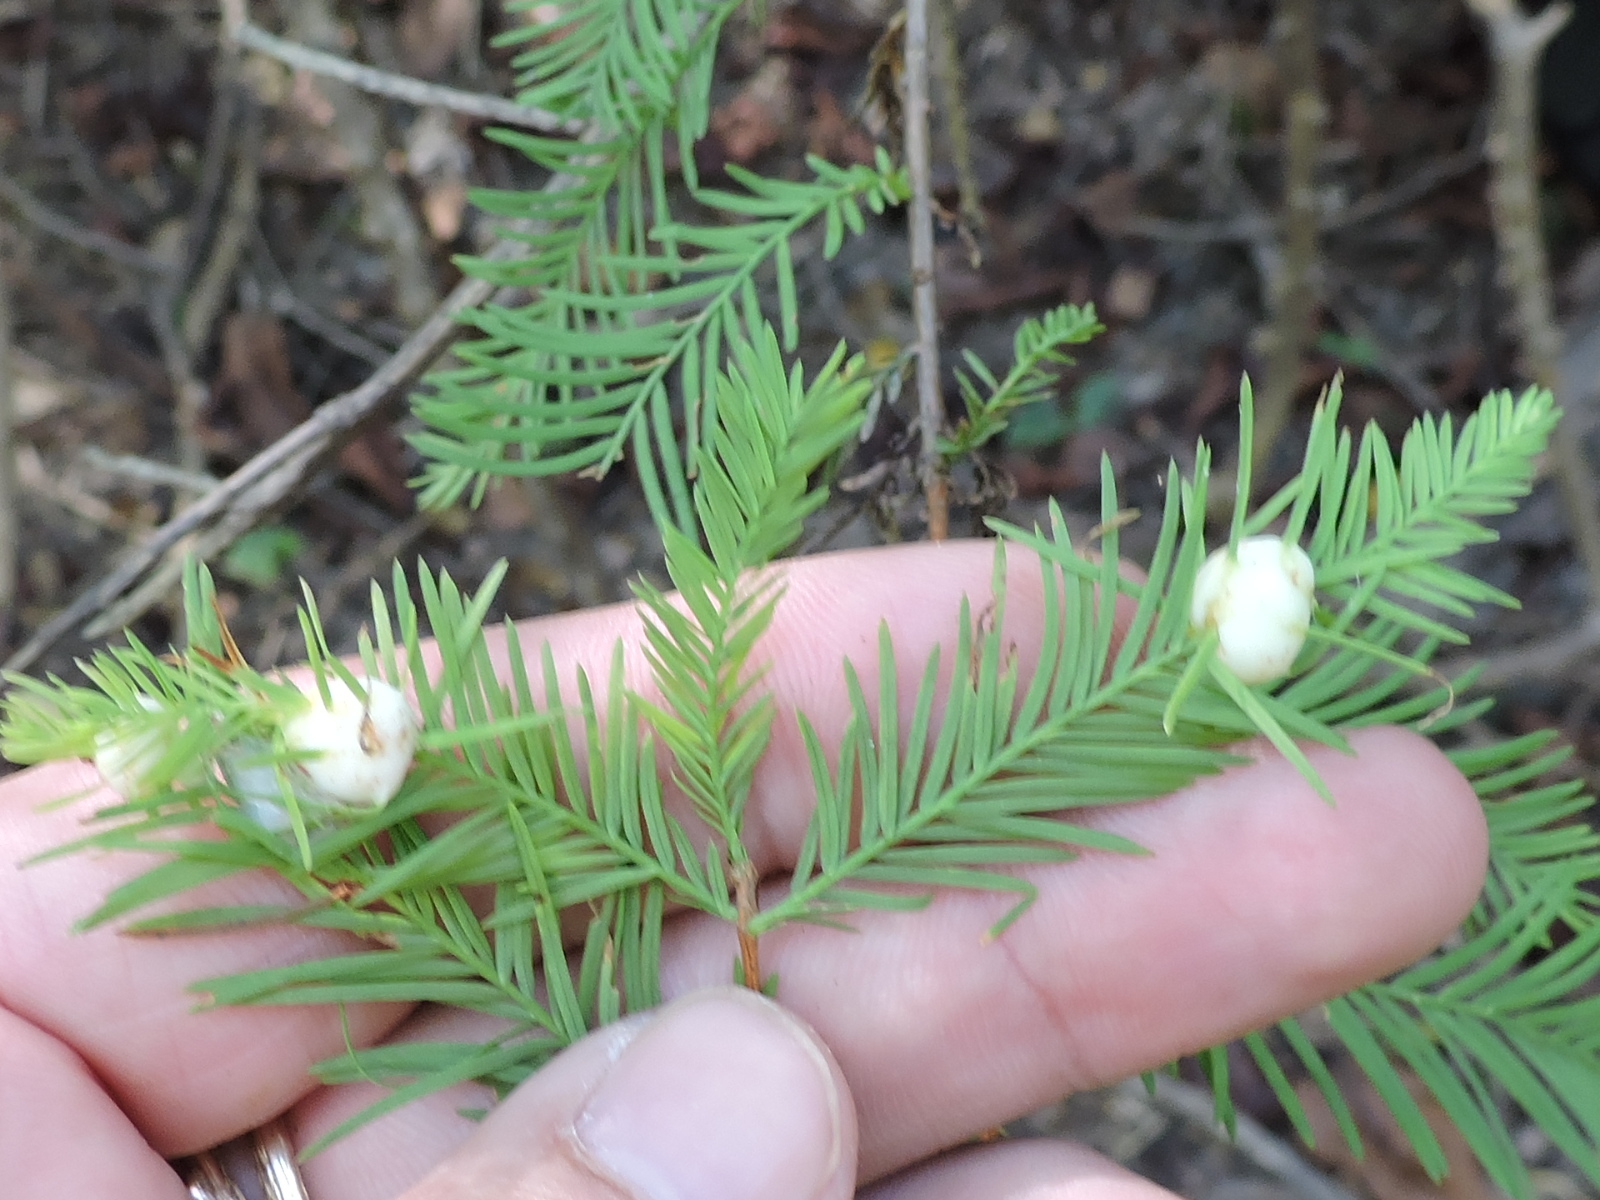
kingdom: Animalia
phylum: Arthropoda
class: Insecta
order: Diptera
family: Cecidomyiidae
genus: Taxodiomyia
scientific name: Taxodiomyia cupressiananassa
